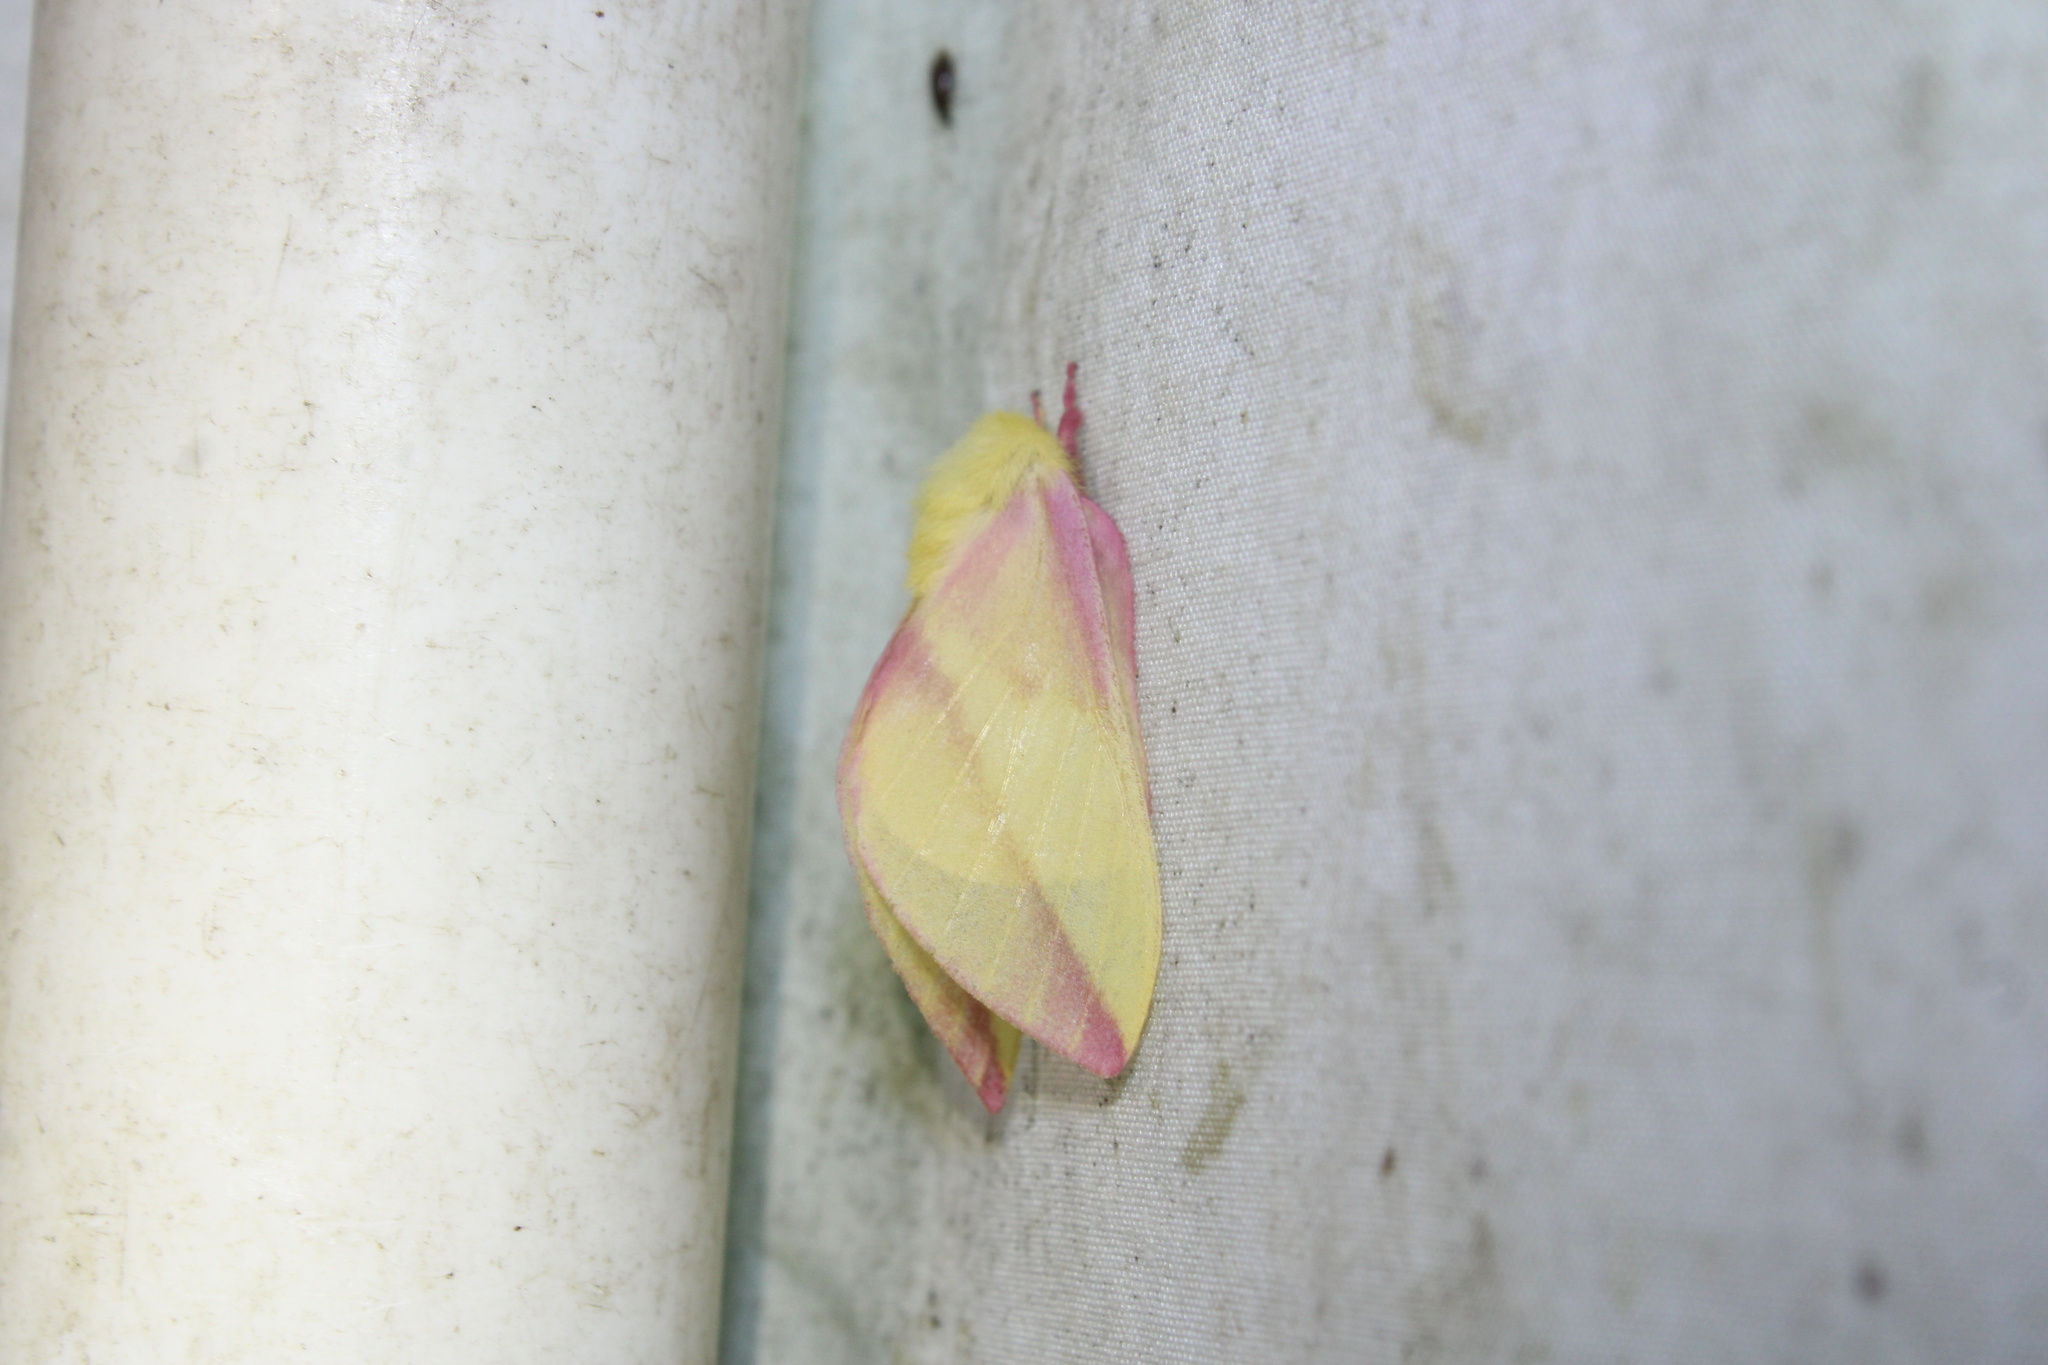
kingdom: Animalia
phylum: Arthropoda
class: Insecta
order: Lepidoptera
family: Saturniidae
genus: Dryocampa
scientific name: Dryocampa rubicunda
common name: Rosy maple moth
